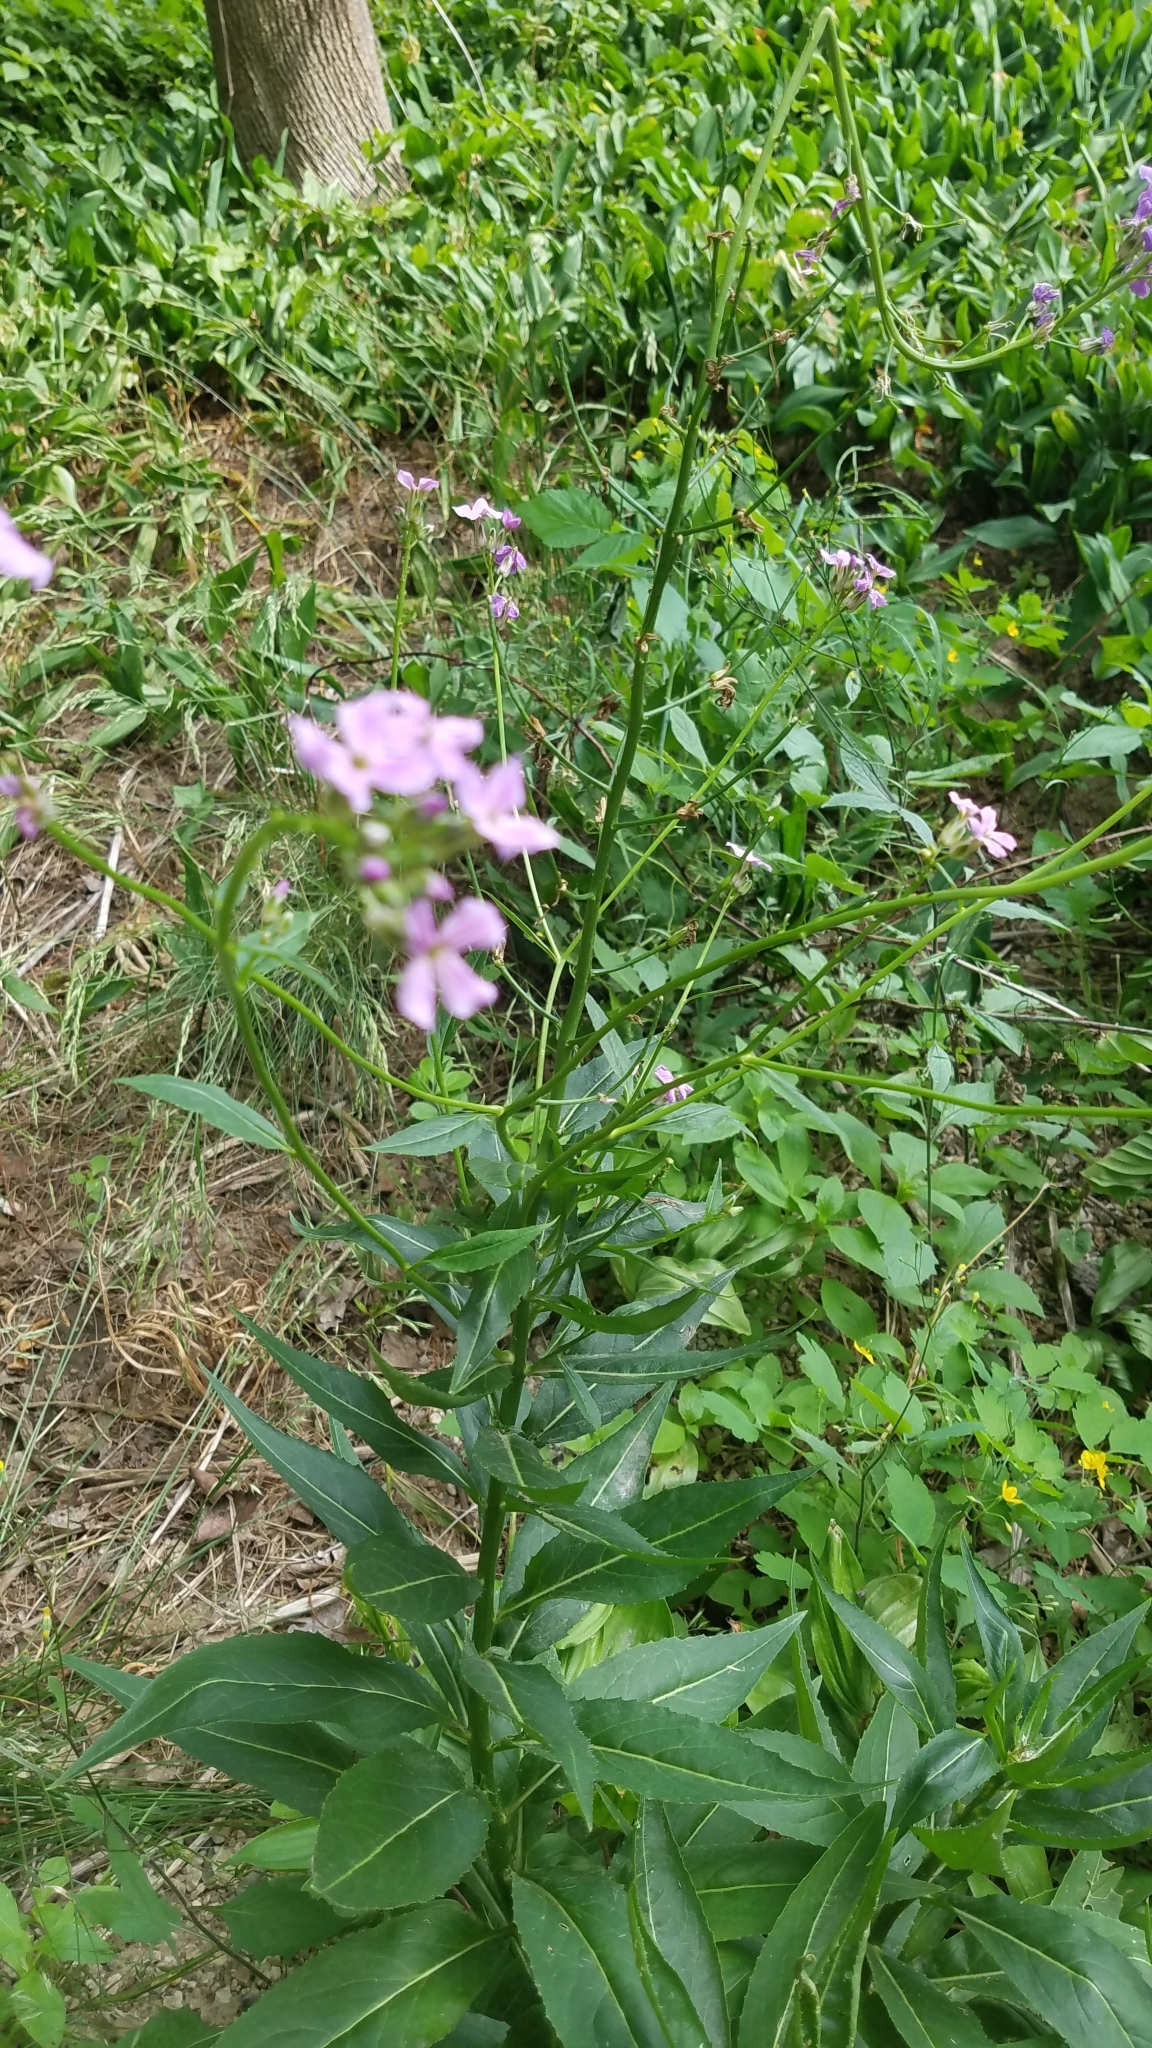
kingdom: Plantae
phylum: Tracheophyta
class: Magnoliopsida
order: Brassicales
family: Brassicaceae
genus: Hesperis
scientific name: Hesperis matronalis
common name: Dame's-violet
